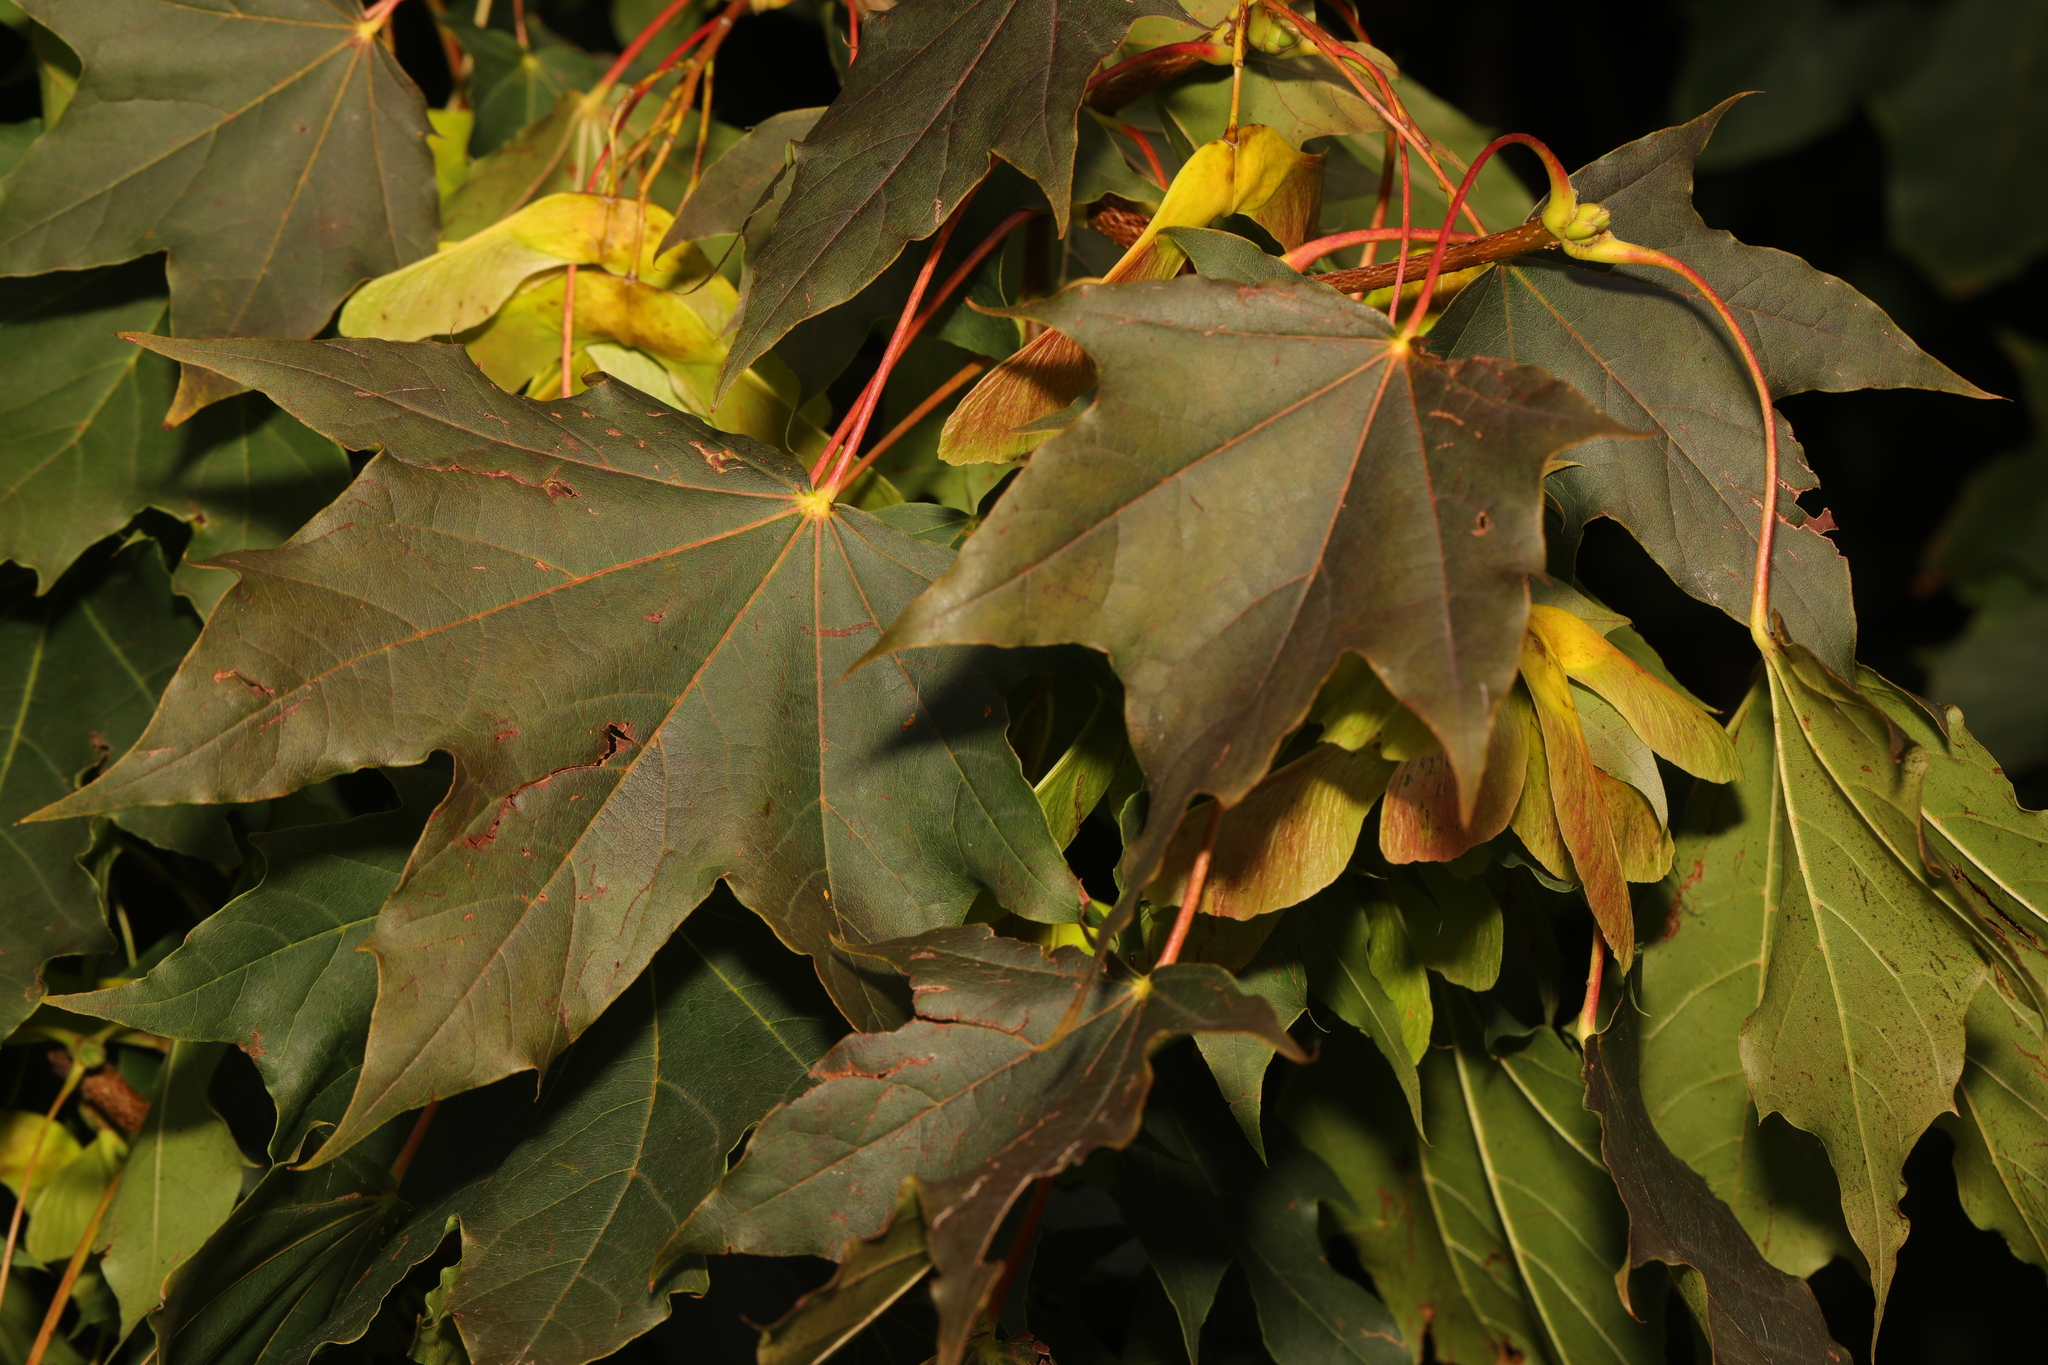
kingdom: Plantae
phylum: Tracheophyta
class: Magnoliopsida
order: Sapindales
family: Sapindaceae
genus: Acer
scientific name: Acer platanoides
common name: Norway maple
